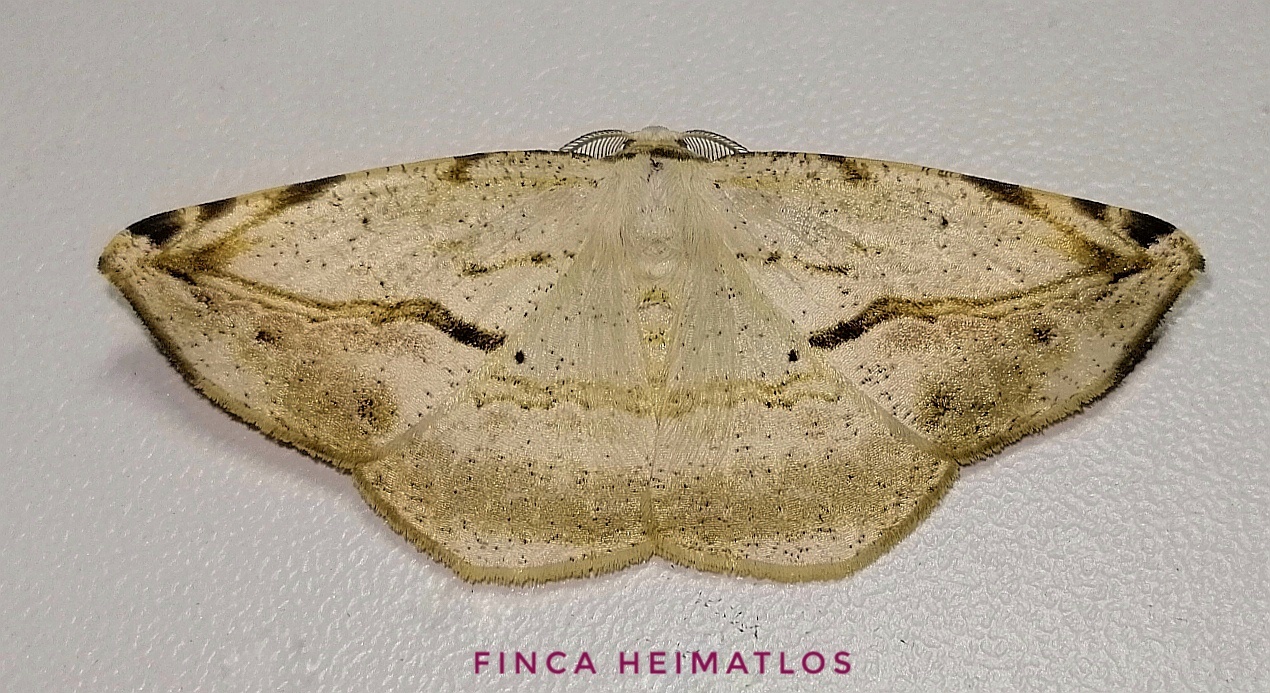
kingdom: Animalia
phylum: Arthropoda
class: Insecta
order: Lepidoptera
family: Geometridae
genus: Eusarca
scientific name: Eusarca nemora
